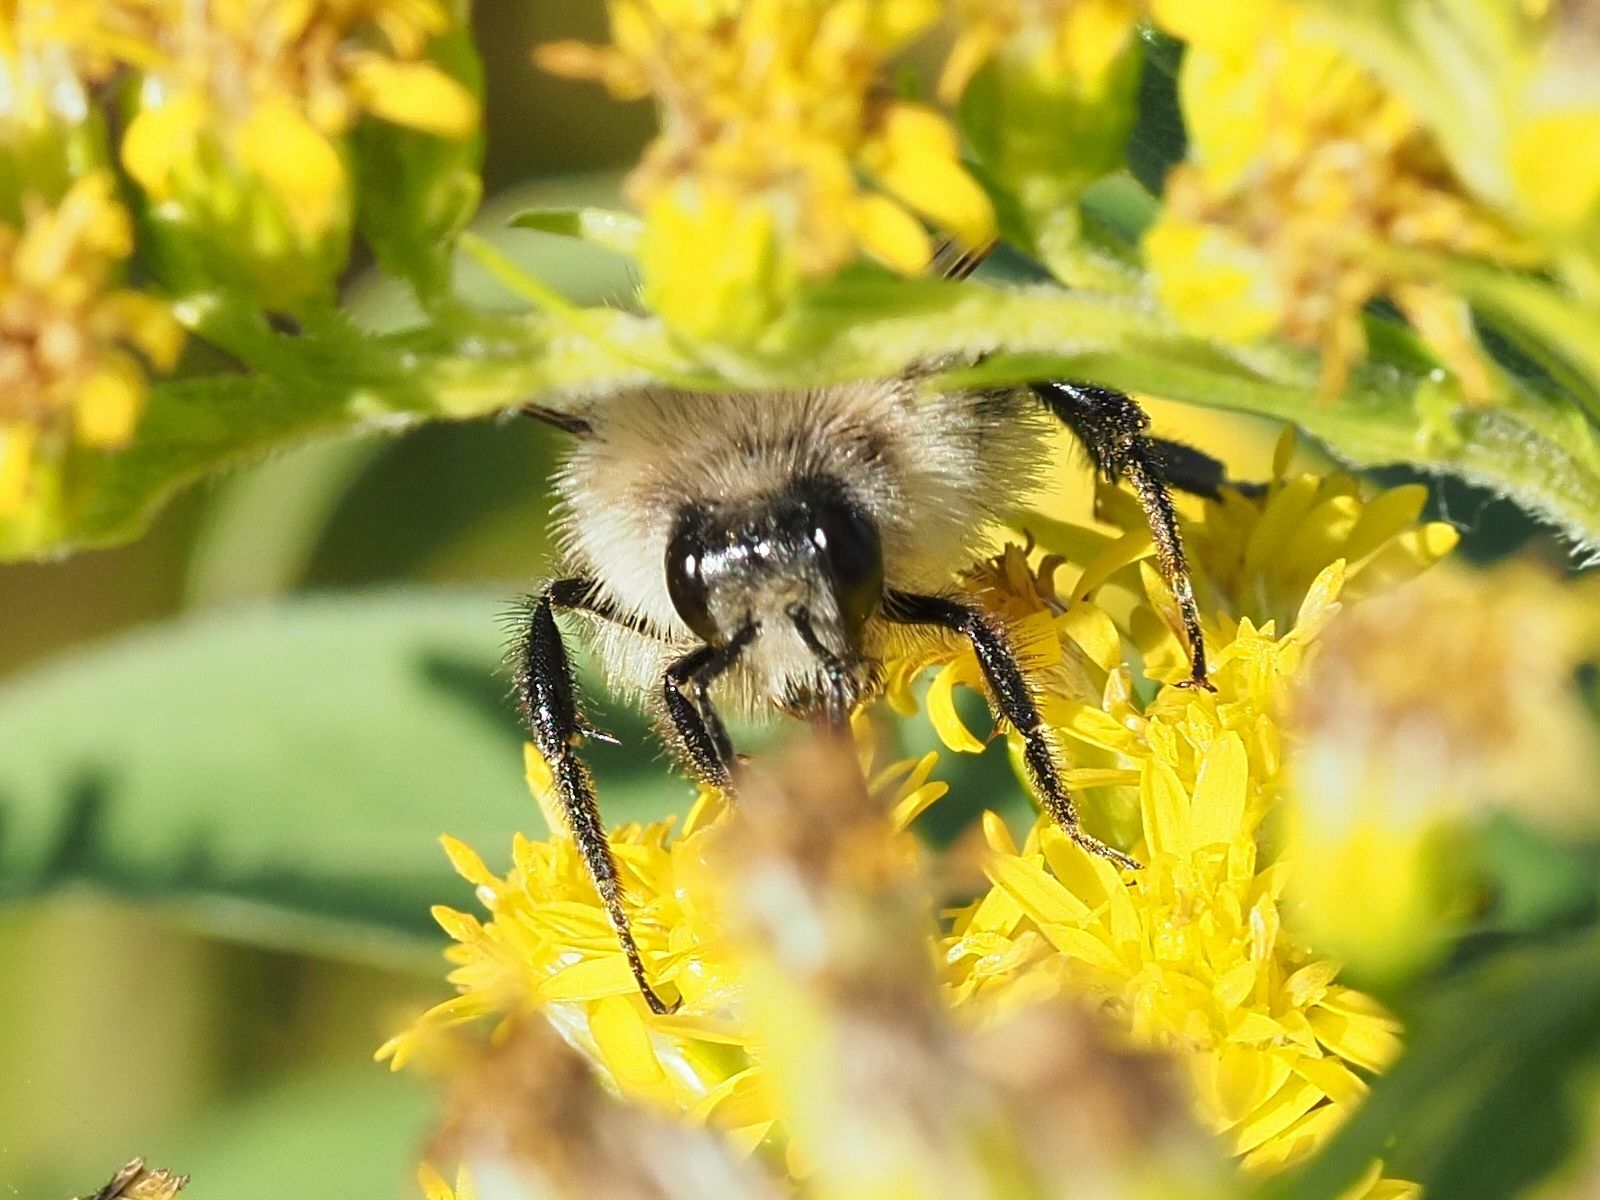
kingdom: Animalia
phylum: Arthropoda
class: Insecta
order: Hymenoptera
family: Apidae
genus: Bombus
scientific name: Bombus pascuorum
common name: Common carder bee
